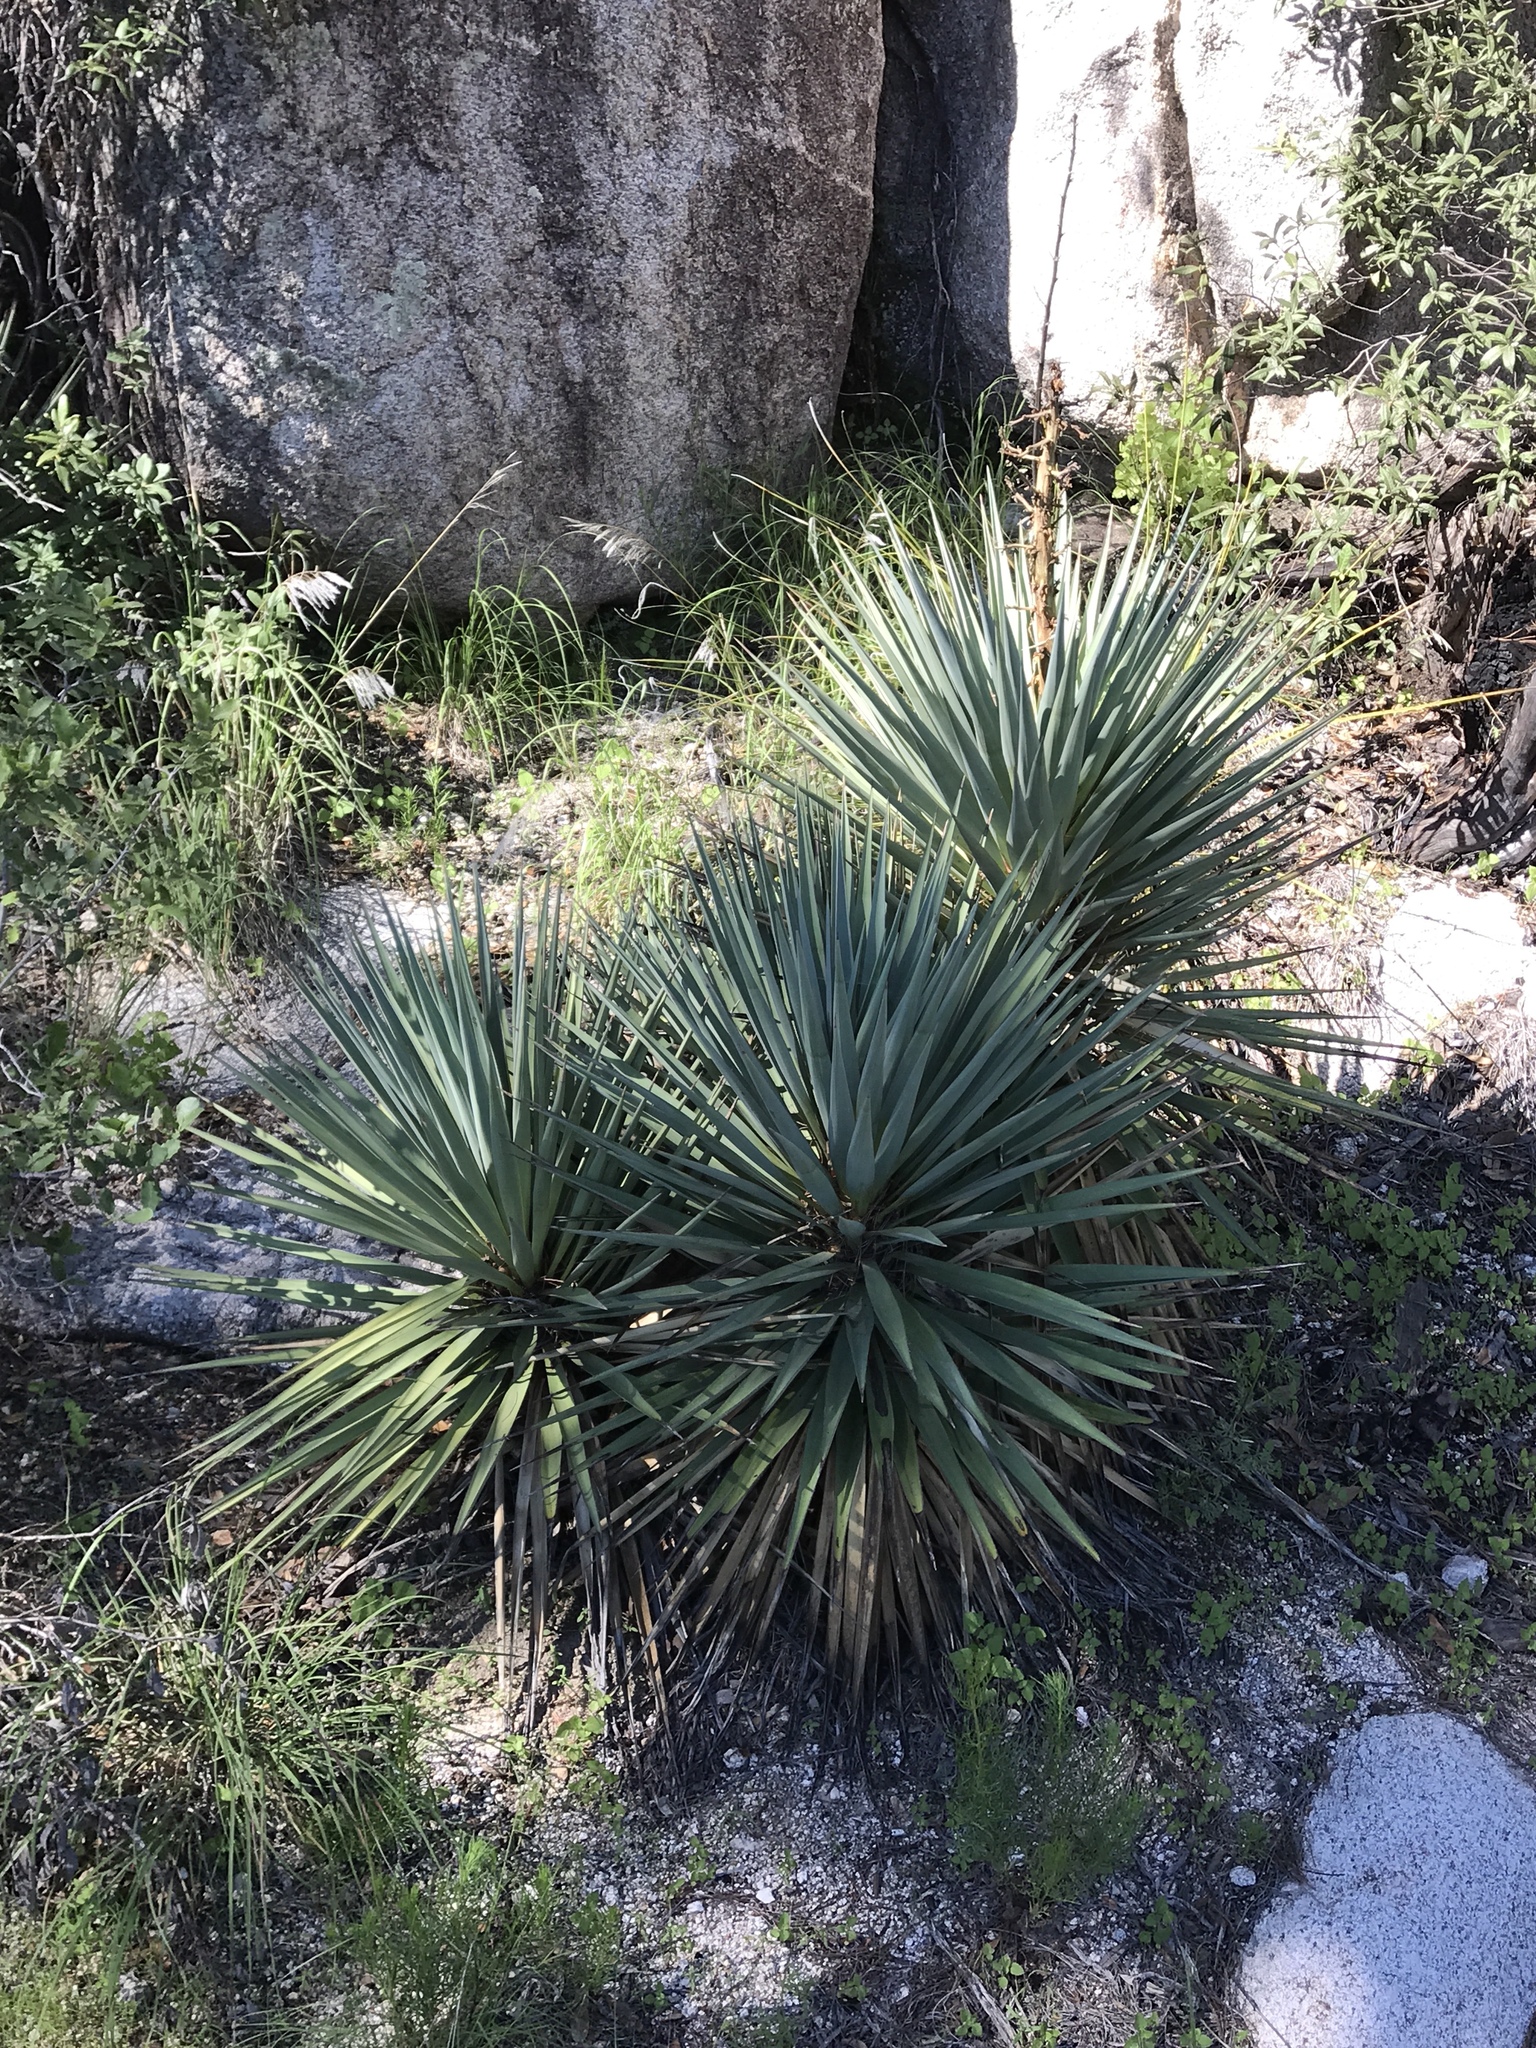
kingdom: Plantae
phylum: Tracheophyta
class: Liliopsida
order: Asparagales
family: Asparagaceae
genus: Yucca
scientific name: Yucca madrensis
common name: Hoary yucca
